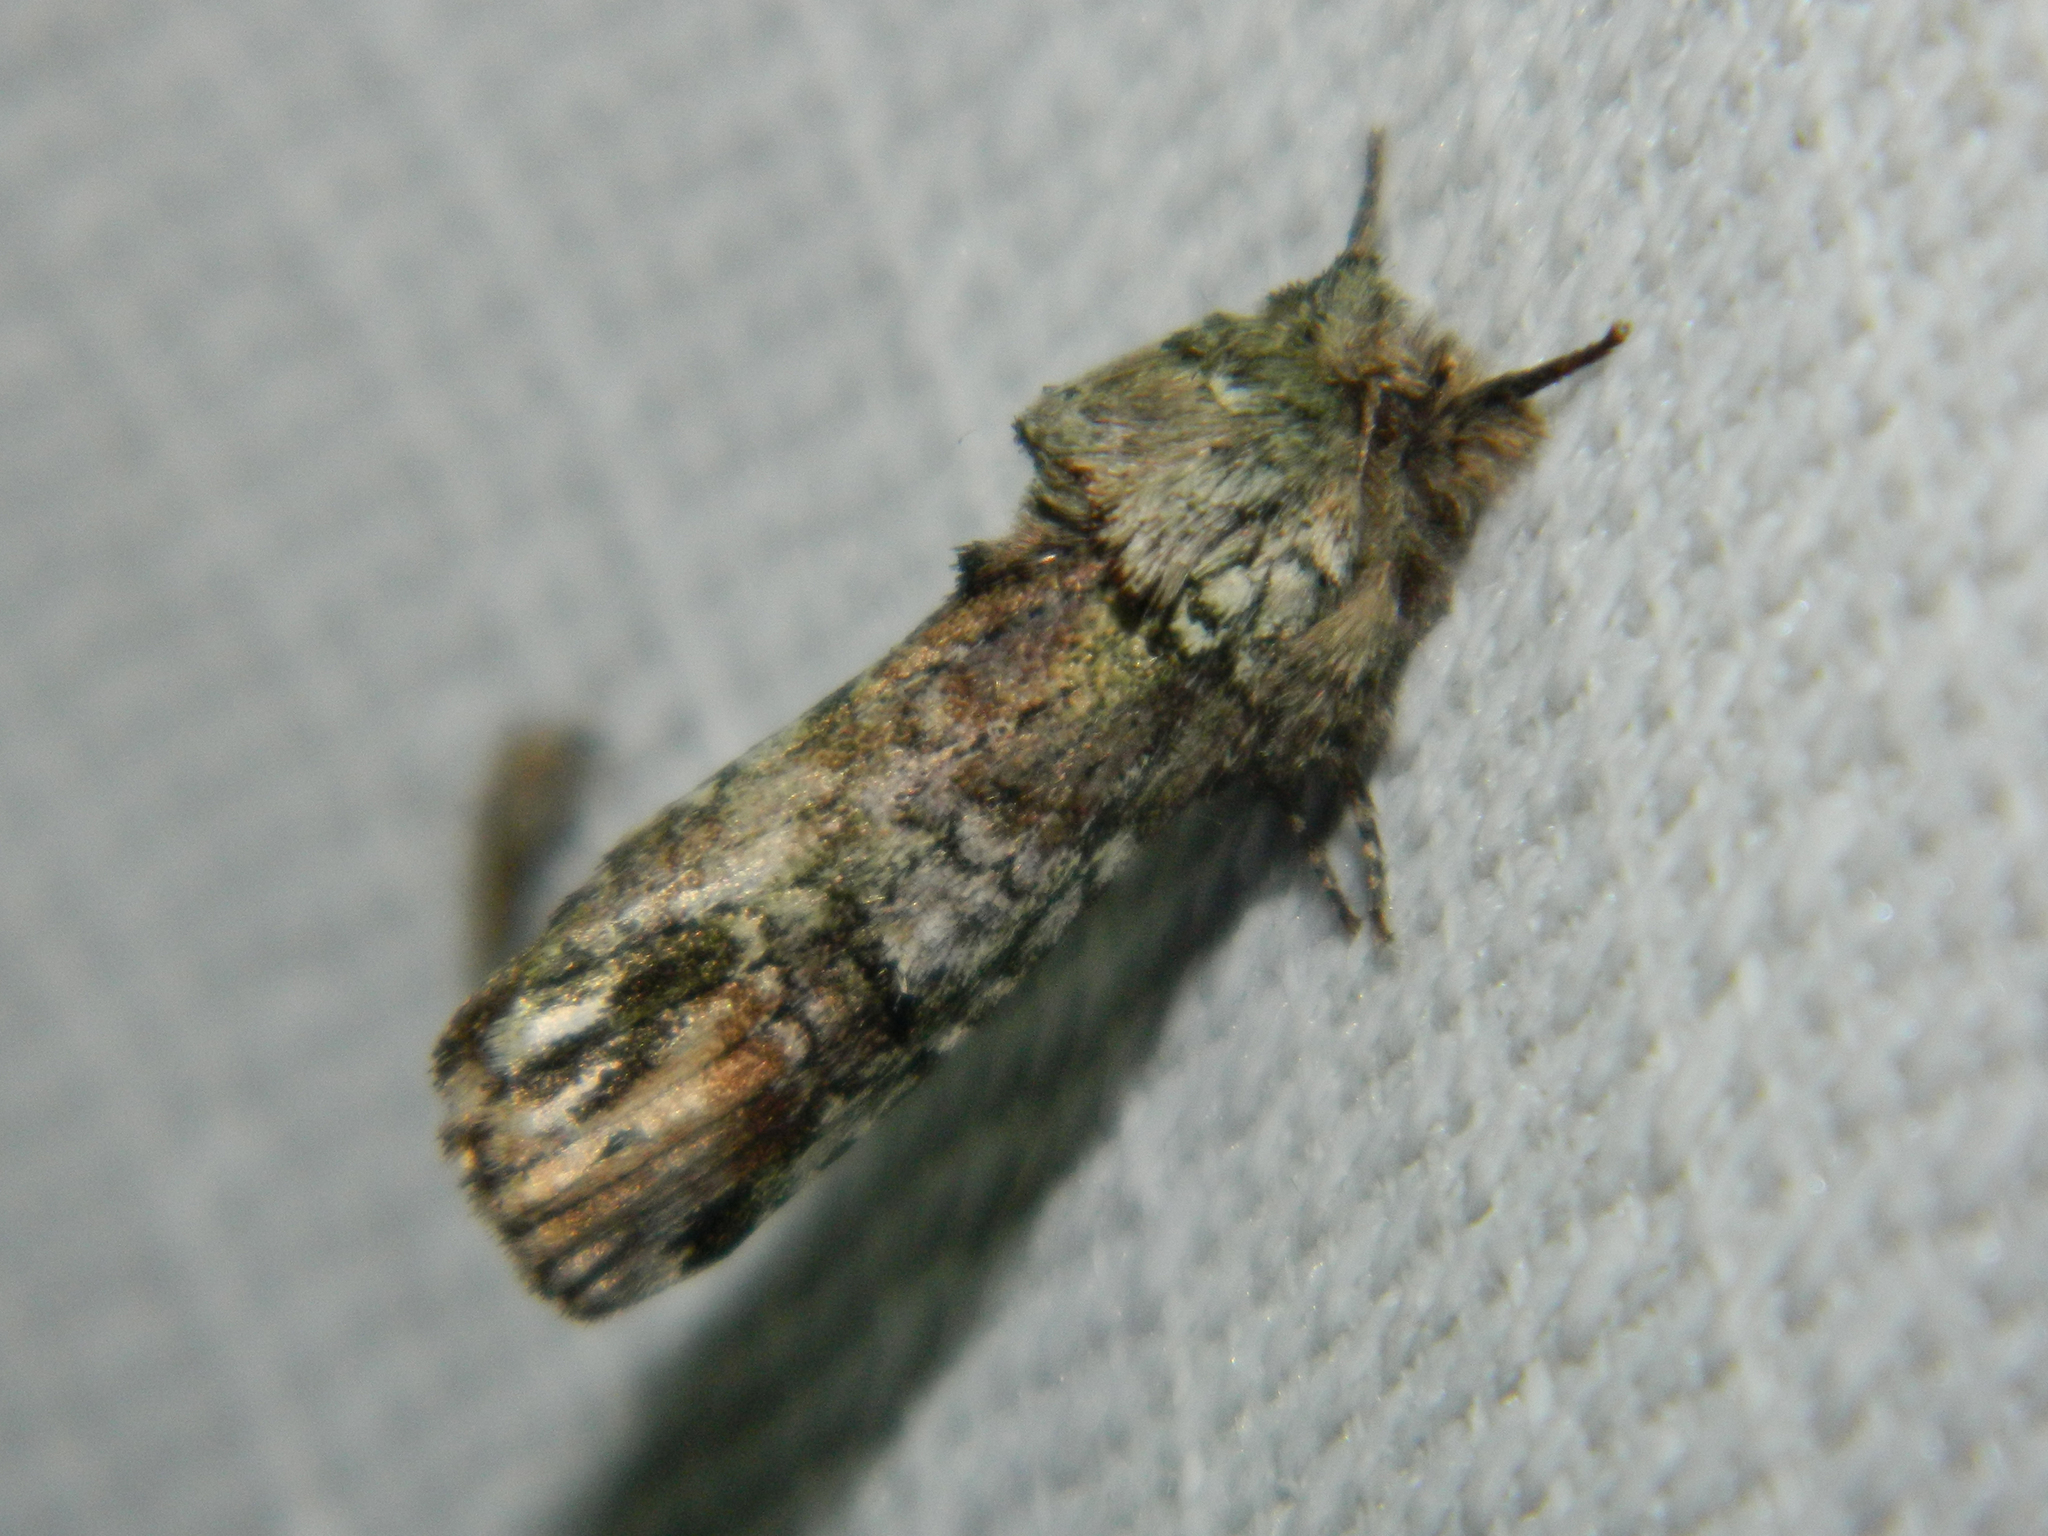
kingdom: Animalia
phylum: Arthropoda
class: Insecta
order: Lepidoptera
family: Notodontidae
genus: Schizura
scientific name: Schizura
